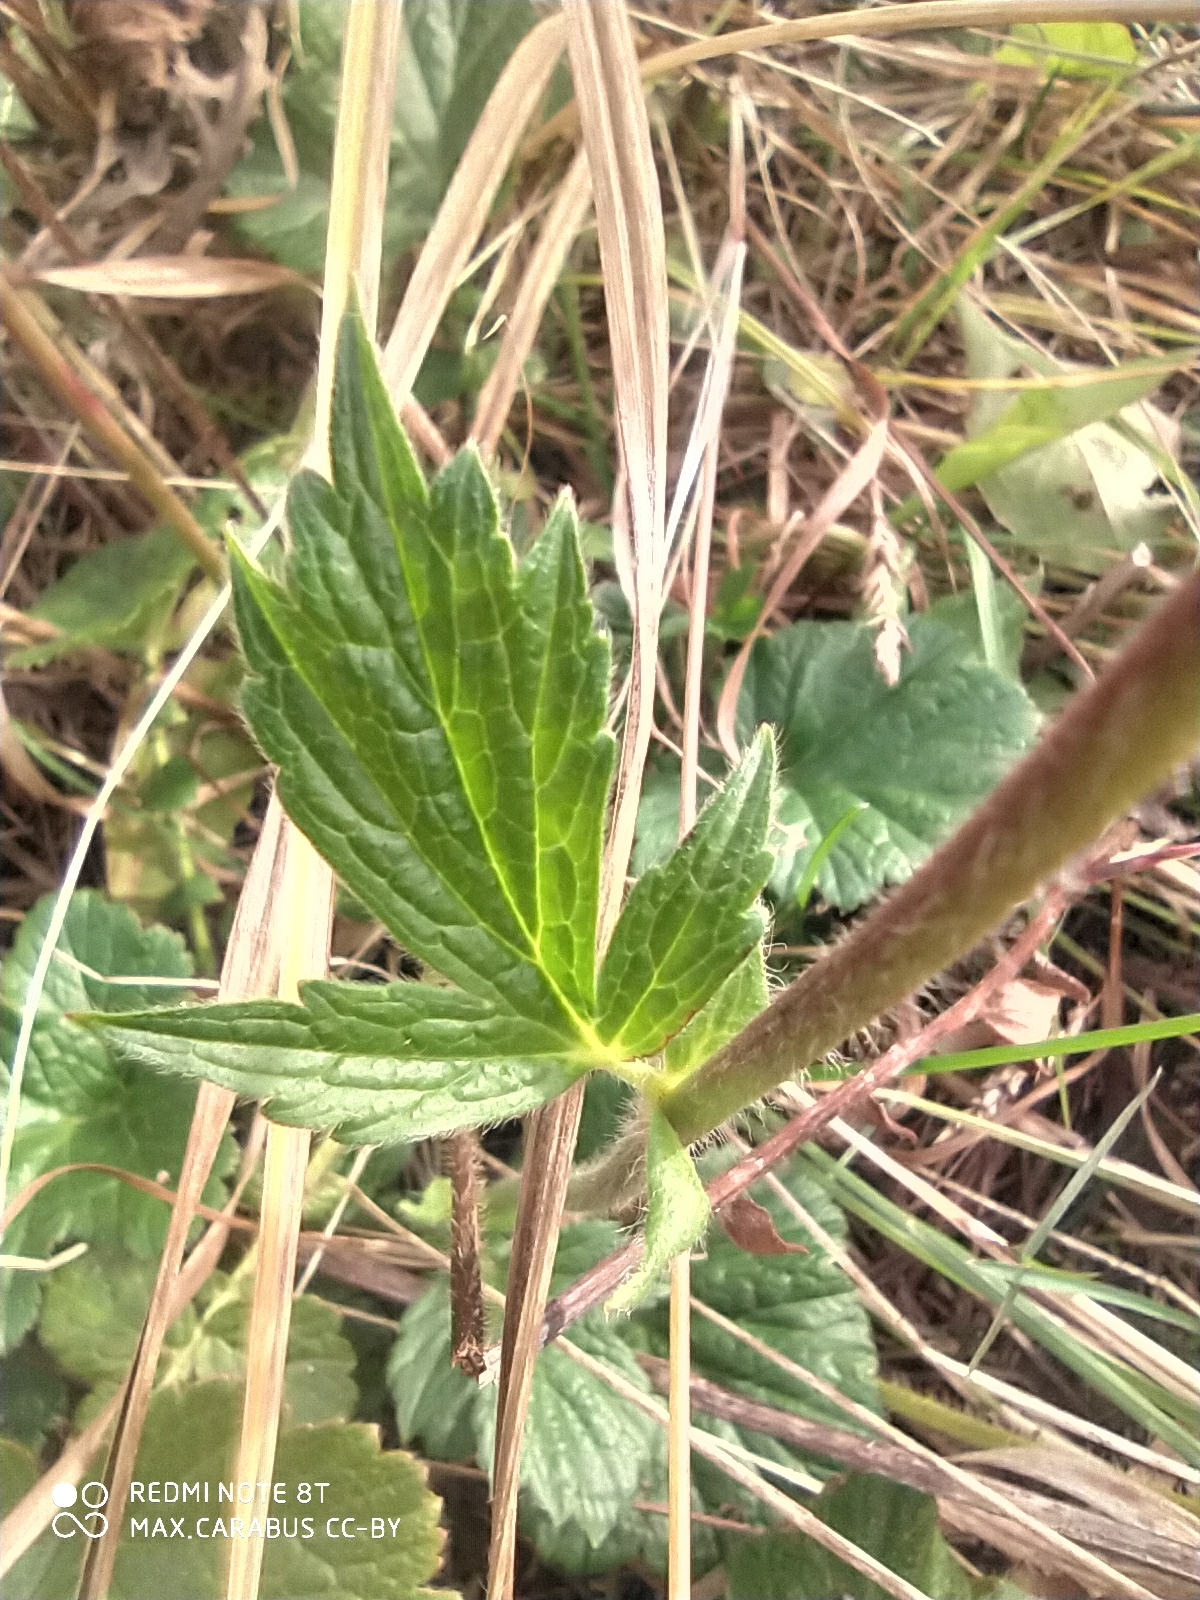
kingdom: Plantae
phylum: Tracheophyta
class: Magnoliopsida
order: Rosales
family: Rosaceae
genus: Geum
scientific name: Geum rivale
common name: Water avens
